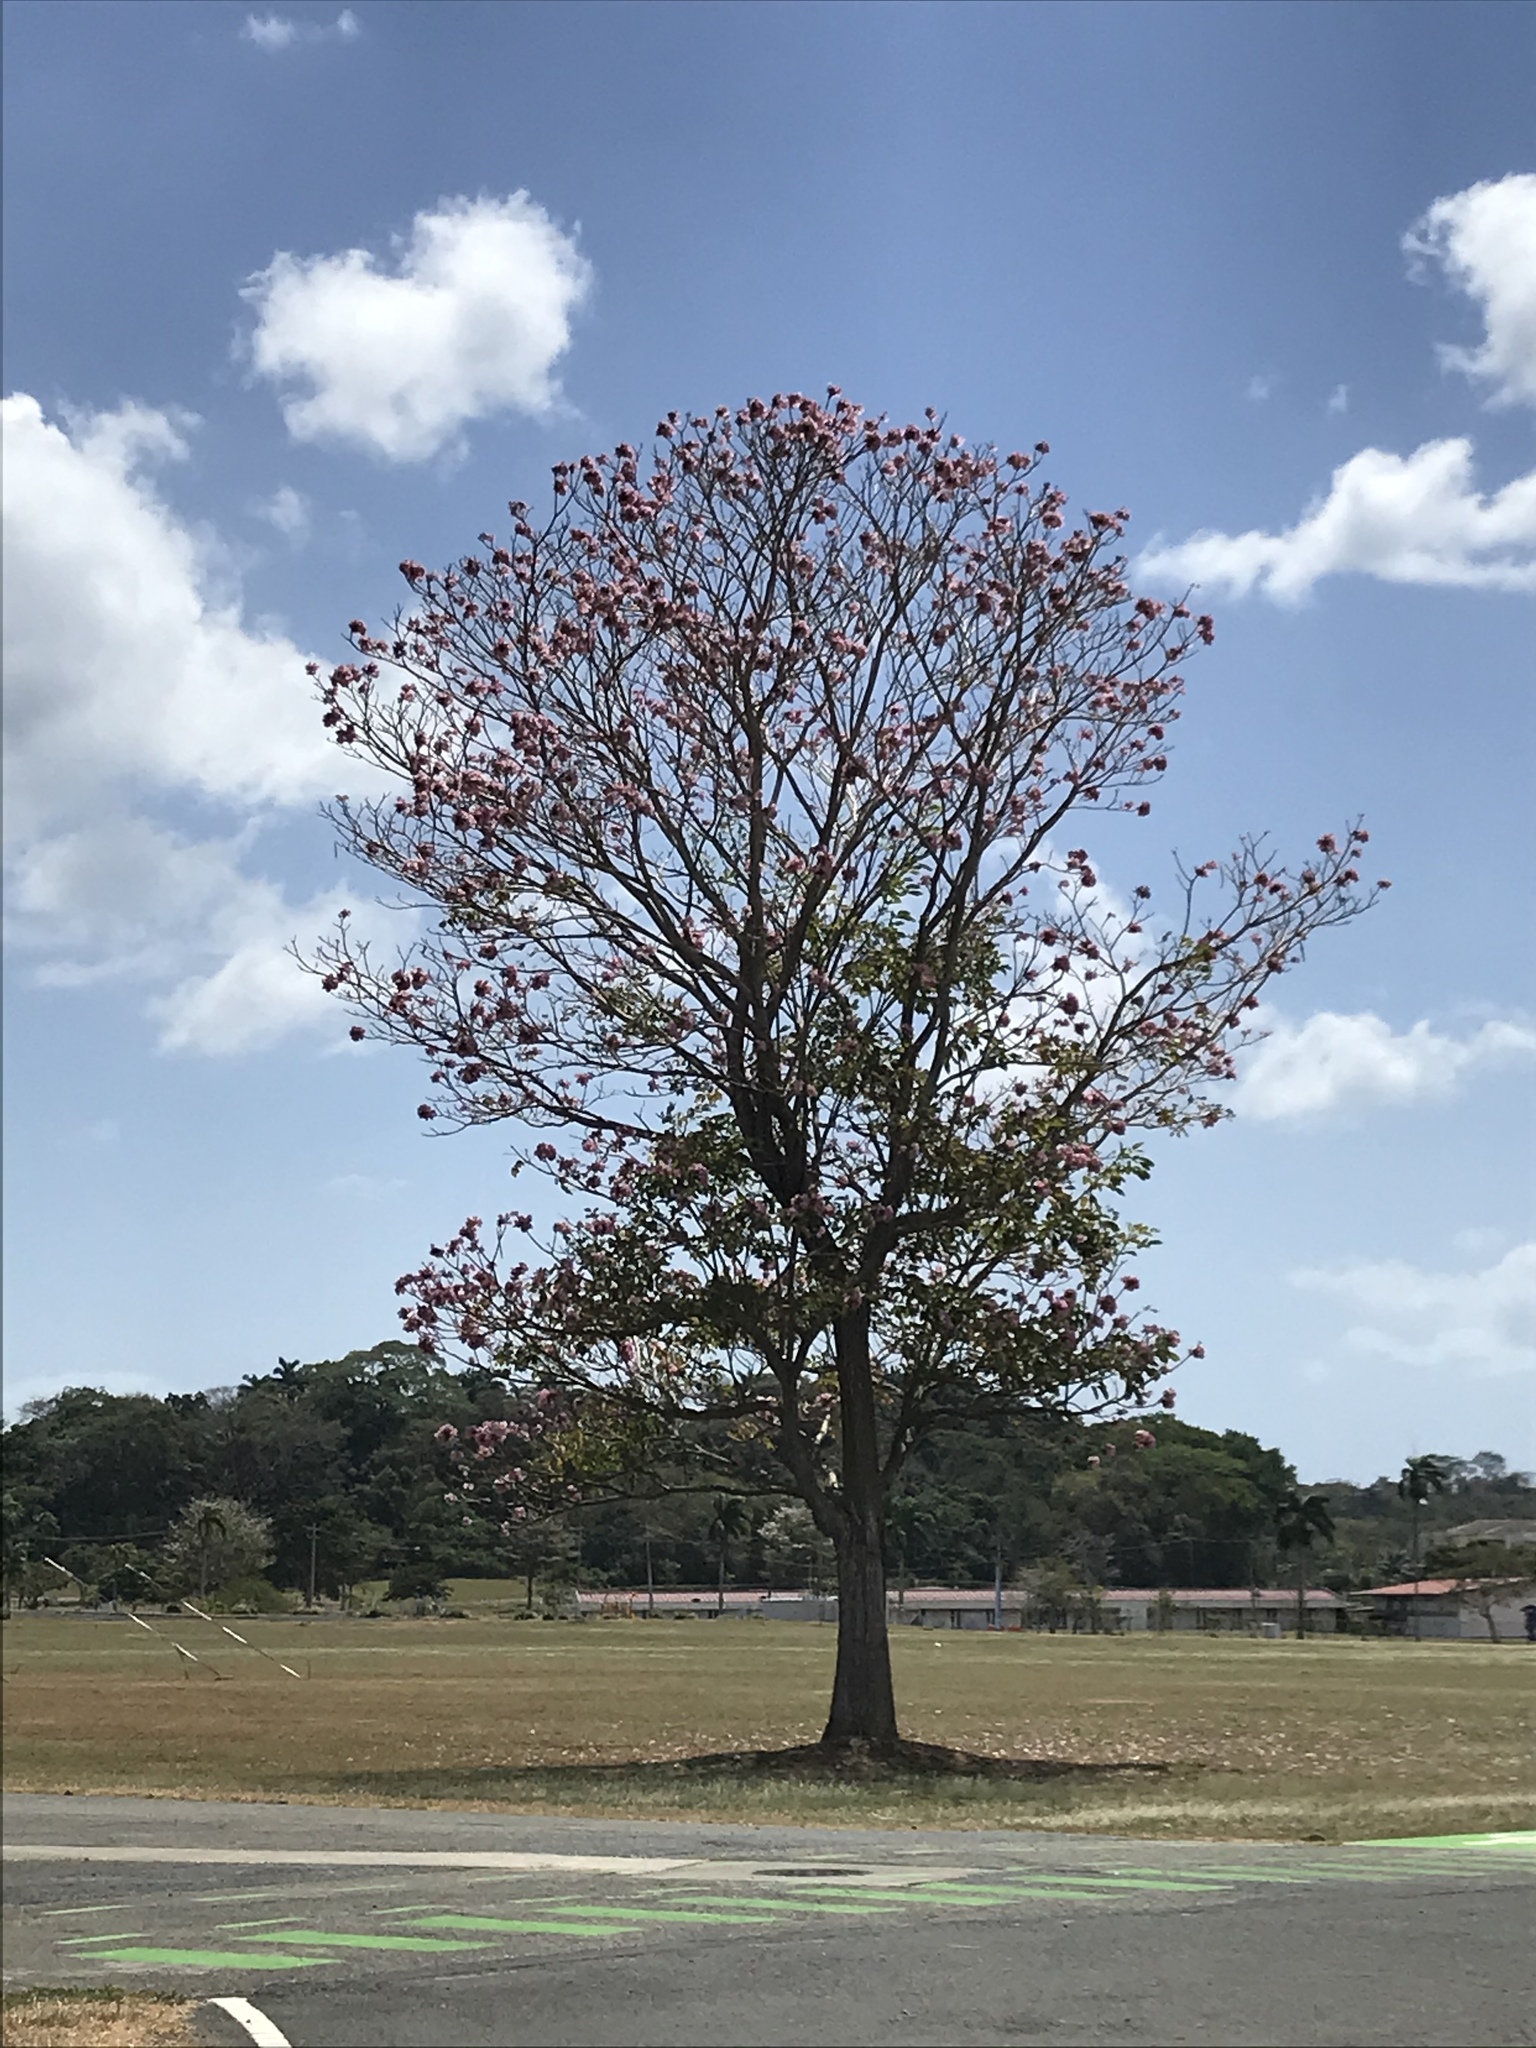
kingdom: Plantae
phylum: Tracheophyta
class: Magnoliopsida
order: Lamiales
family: Bignoniaceae
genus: Tabebuia
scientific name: Tabebuia rosea
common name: Pink poui
